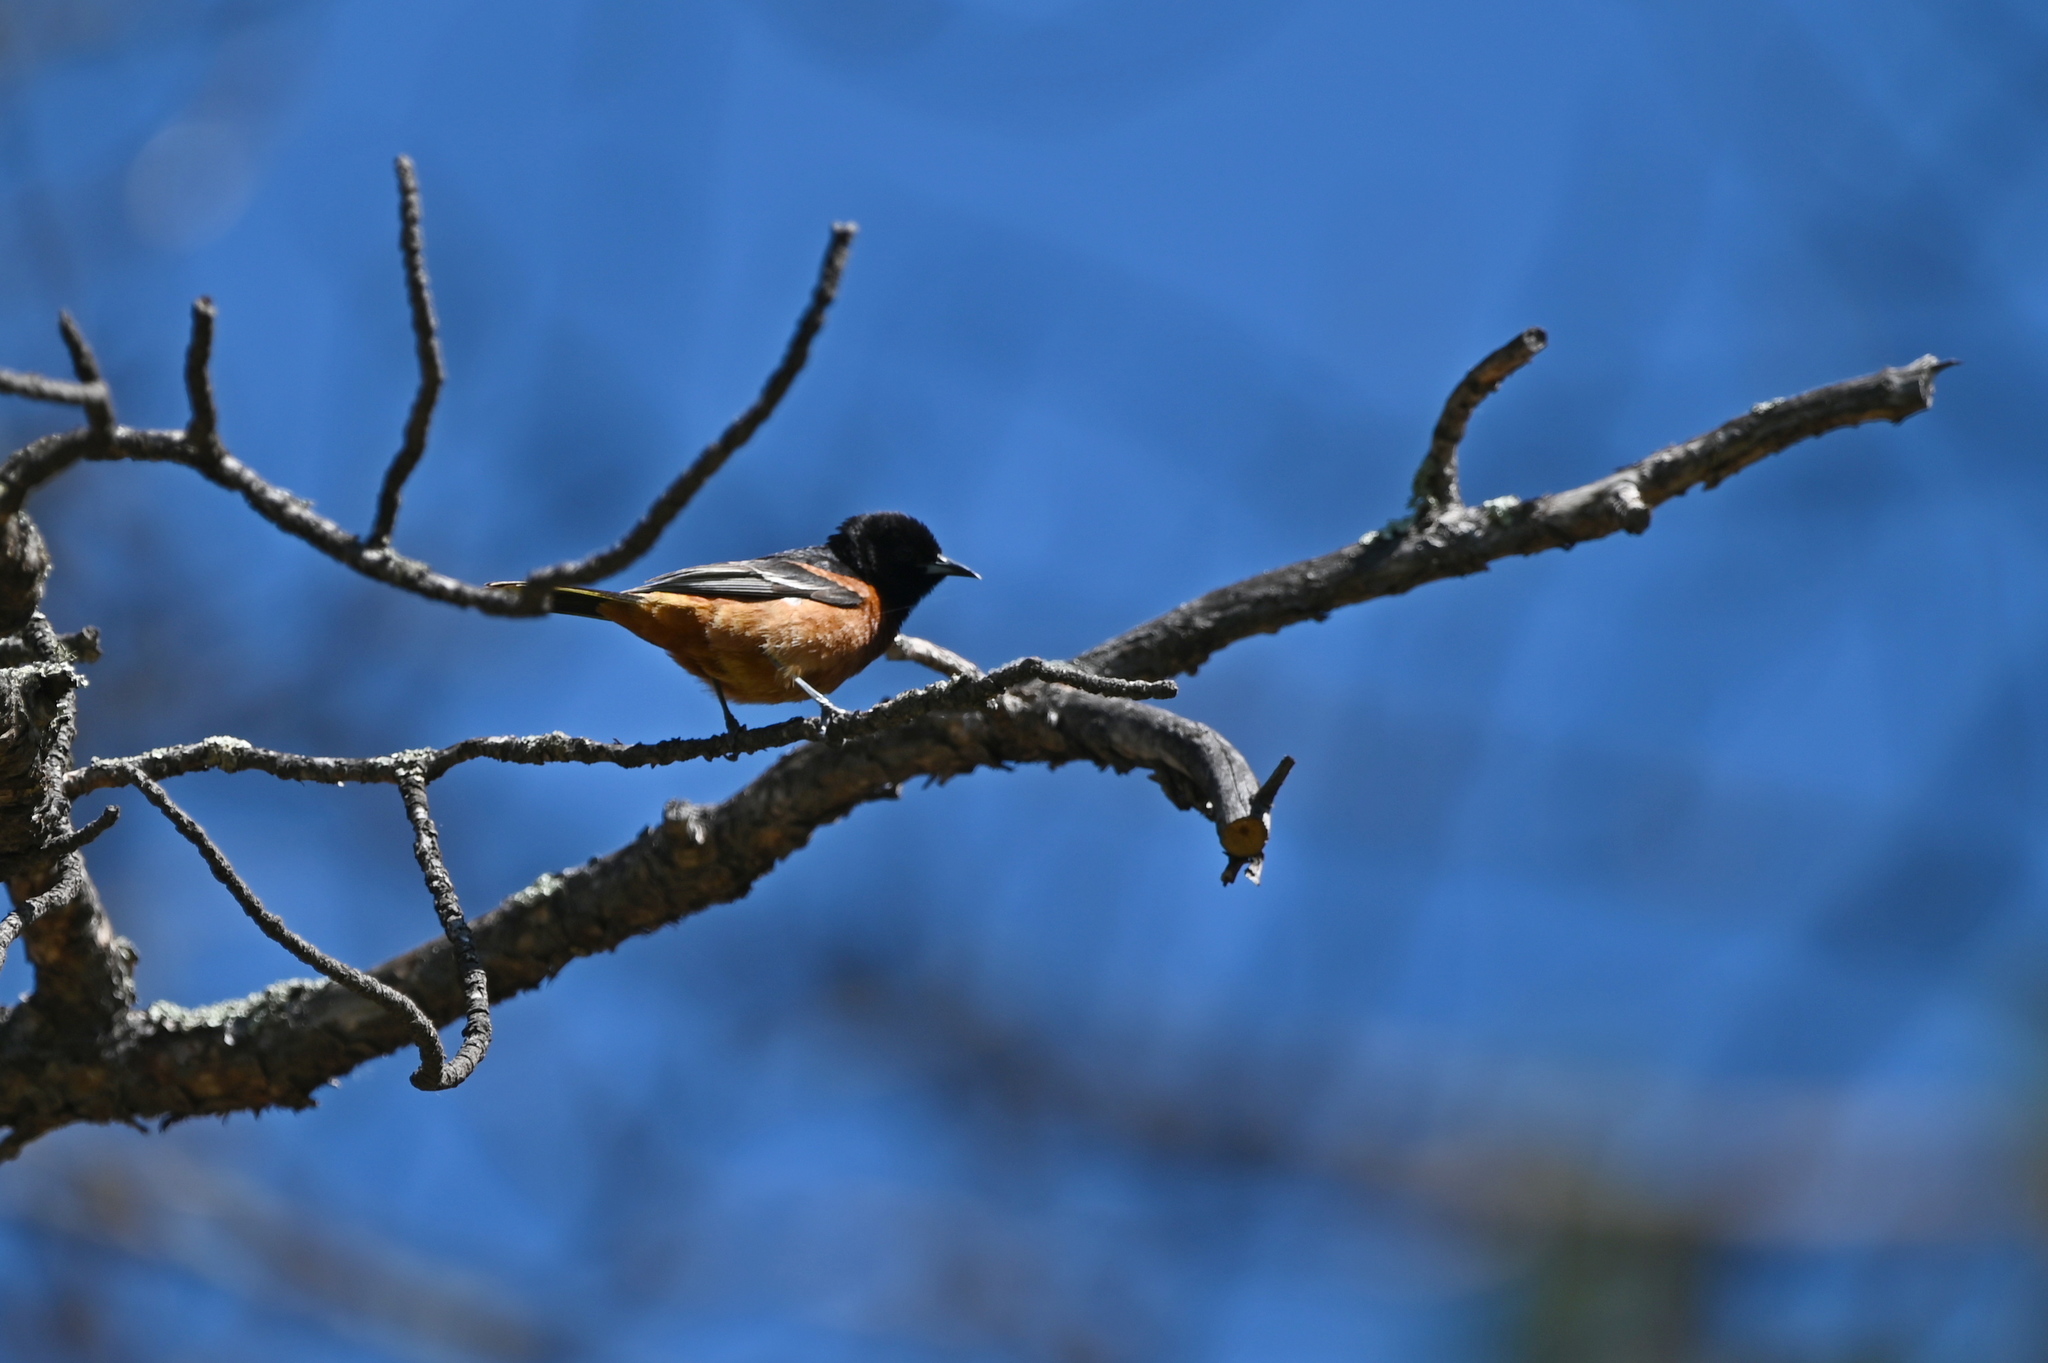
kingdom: Animalia
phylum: Chordata
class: Aves
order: Passeriformes
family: Icteridae
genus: Icterus
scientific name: Icterus spurius
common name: Orchard oriole
